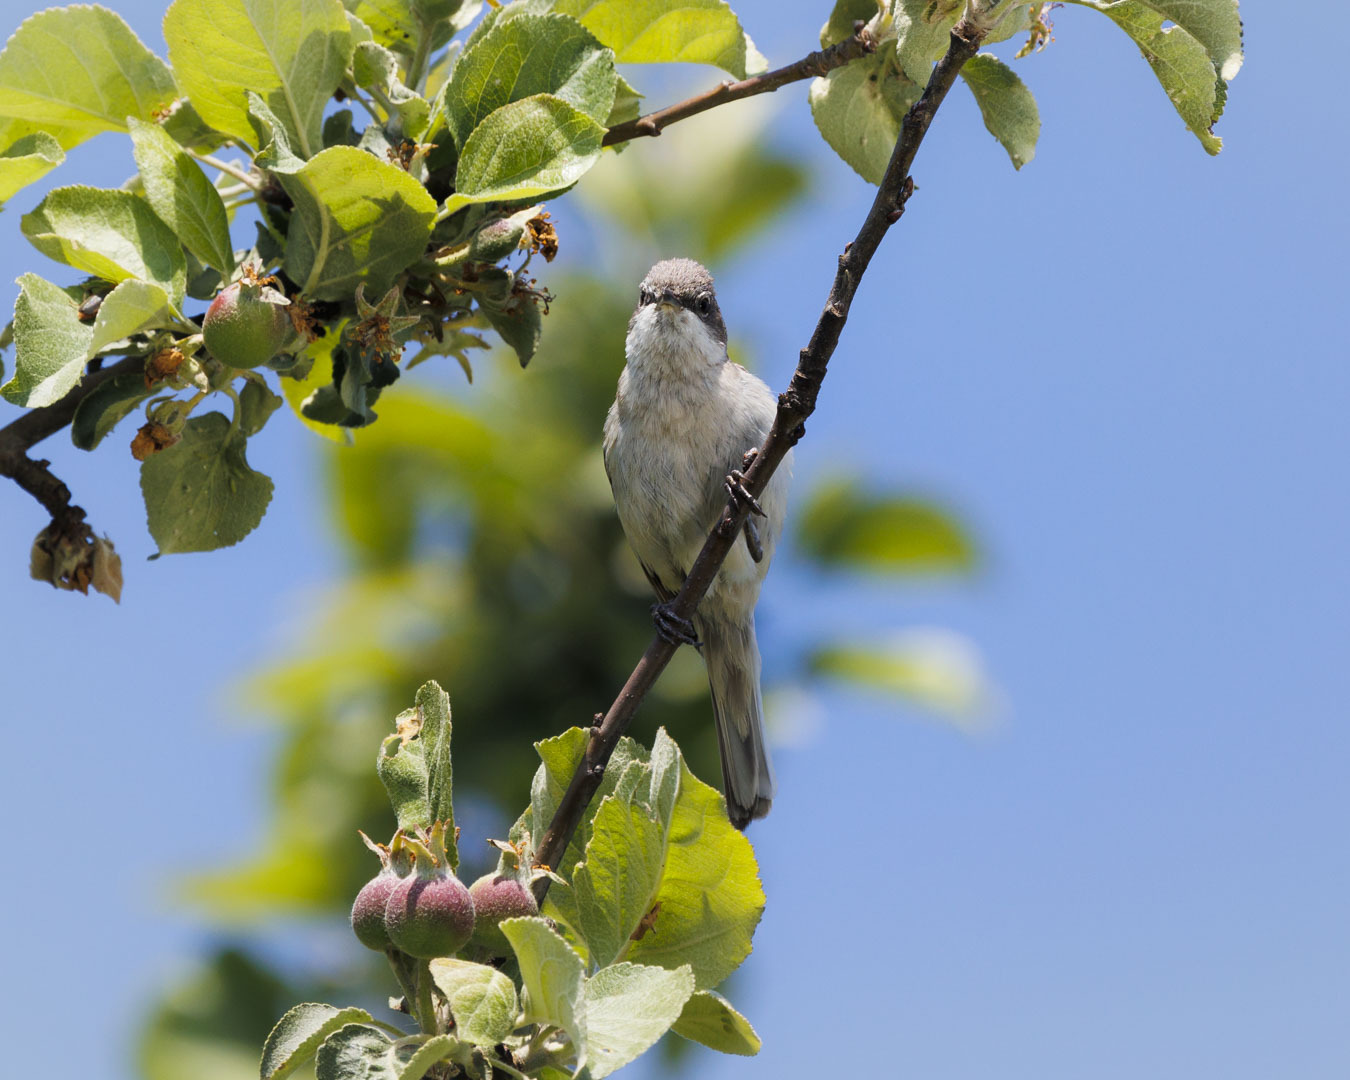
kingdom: Animalia
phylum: Chordata
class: Aves
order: Passeriformes
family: Sylviidae
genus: Sylvia
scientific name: Sylvia curruca
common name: Lesser whitethroat
